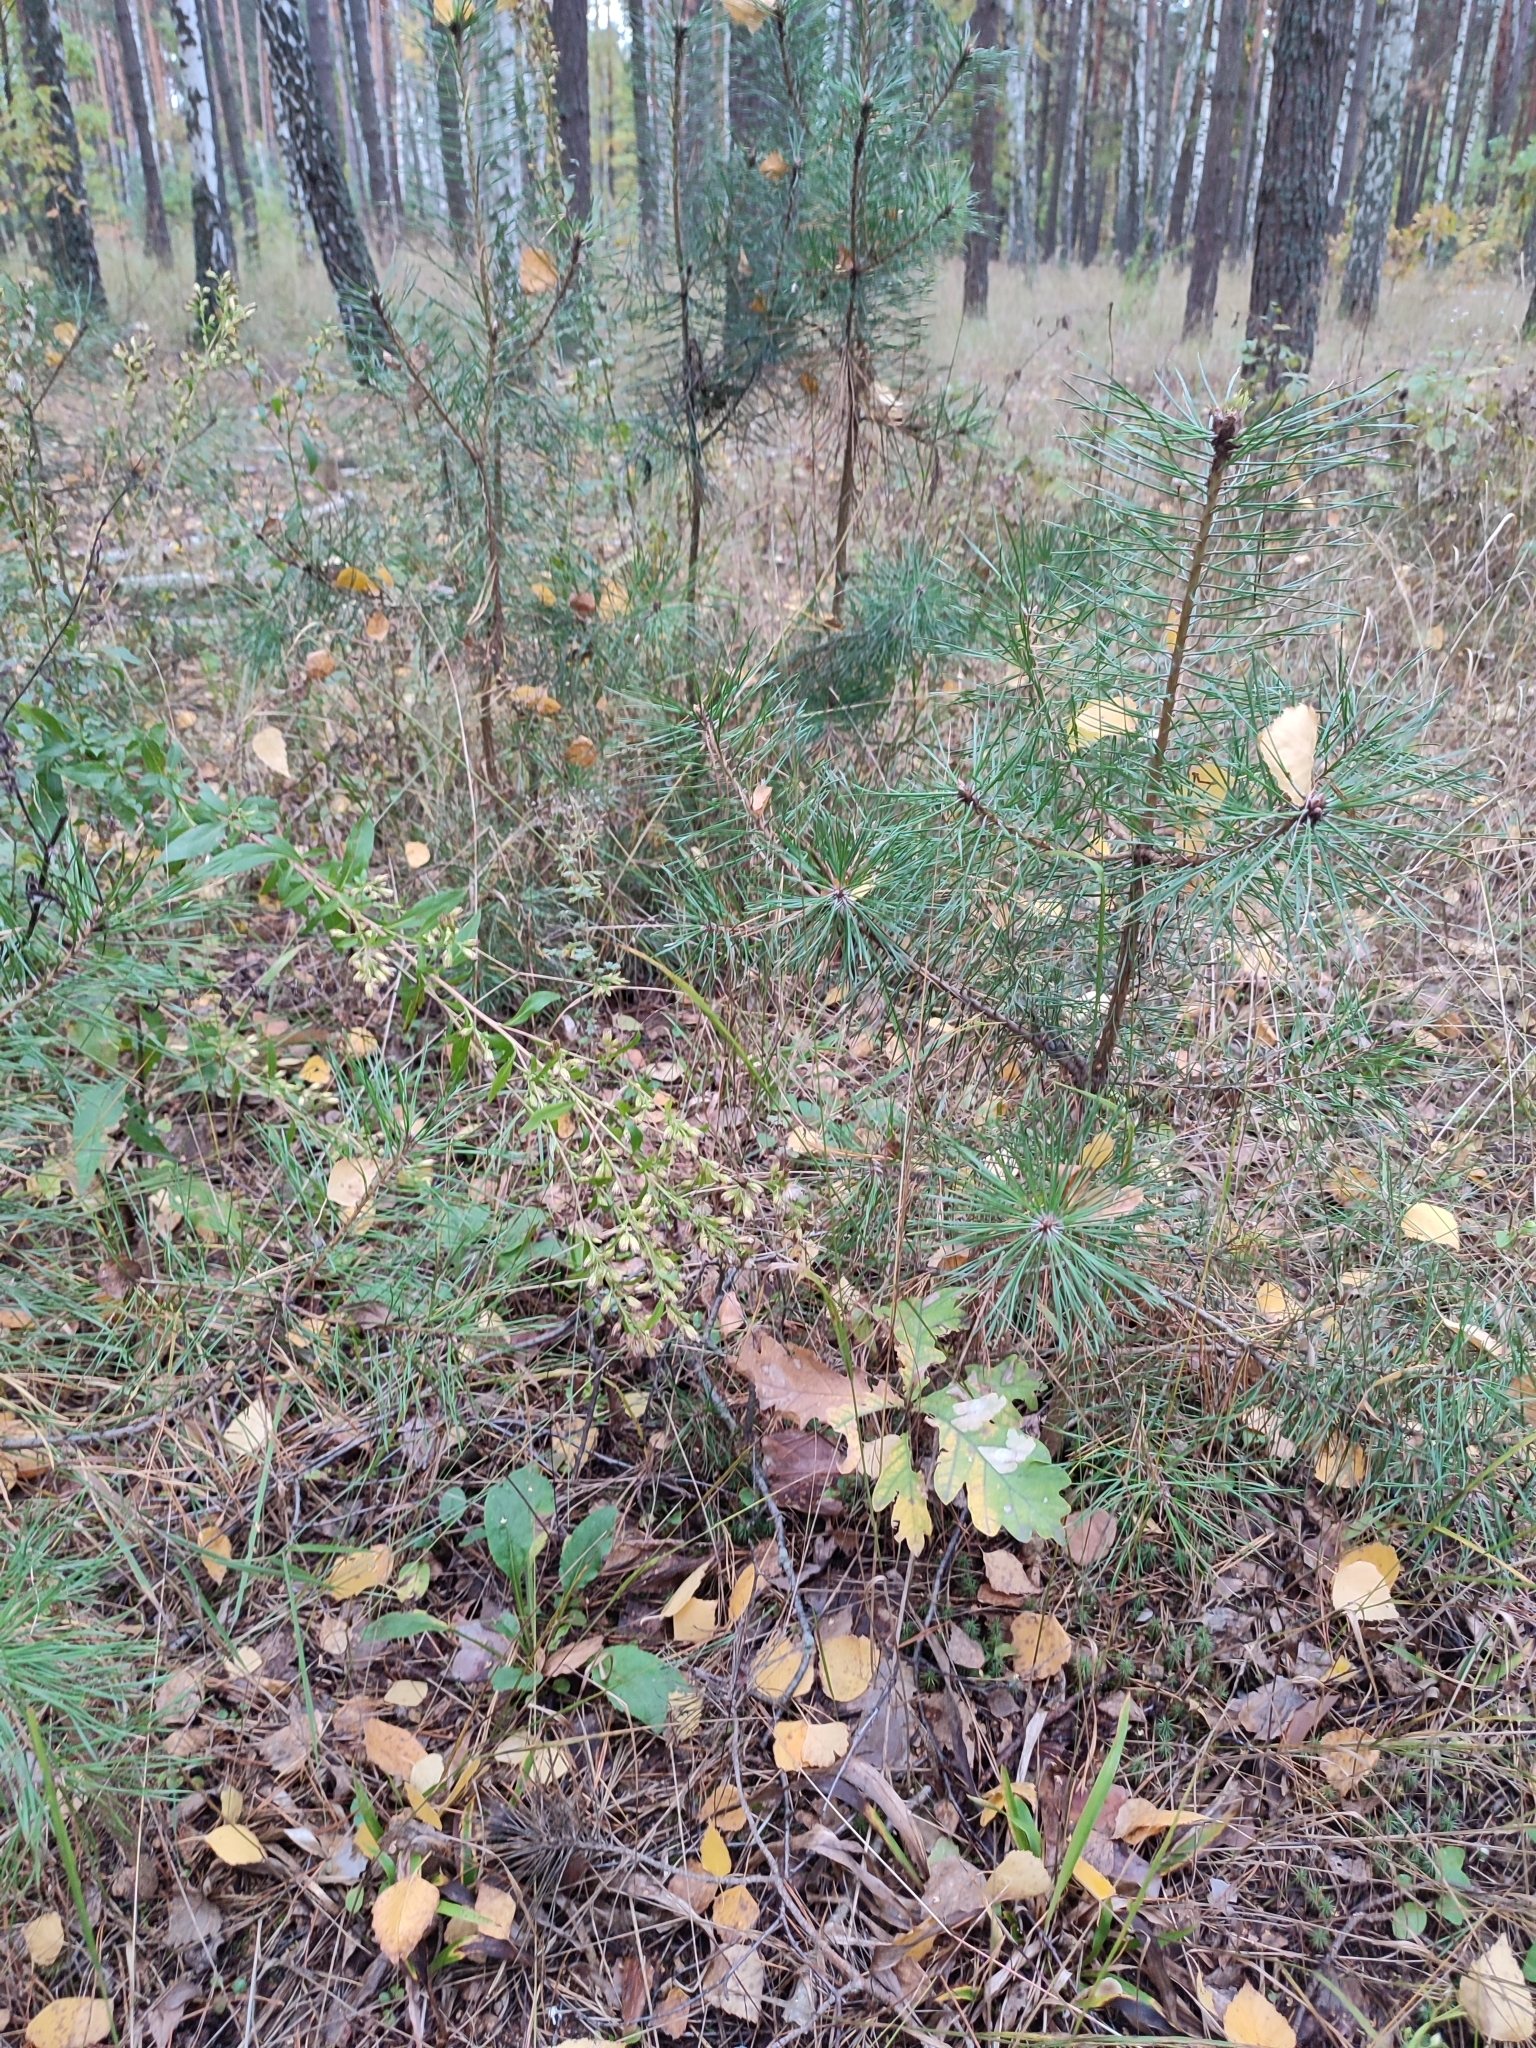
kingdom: Plantae
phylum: Tracheophyta
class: Magnoliopsida
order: Fagales
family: Fagaceae
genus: Quercus
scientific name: Quercus robur
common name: Pedunculate oak
